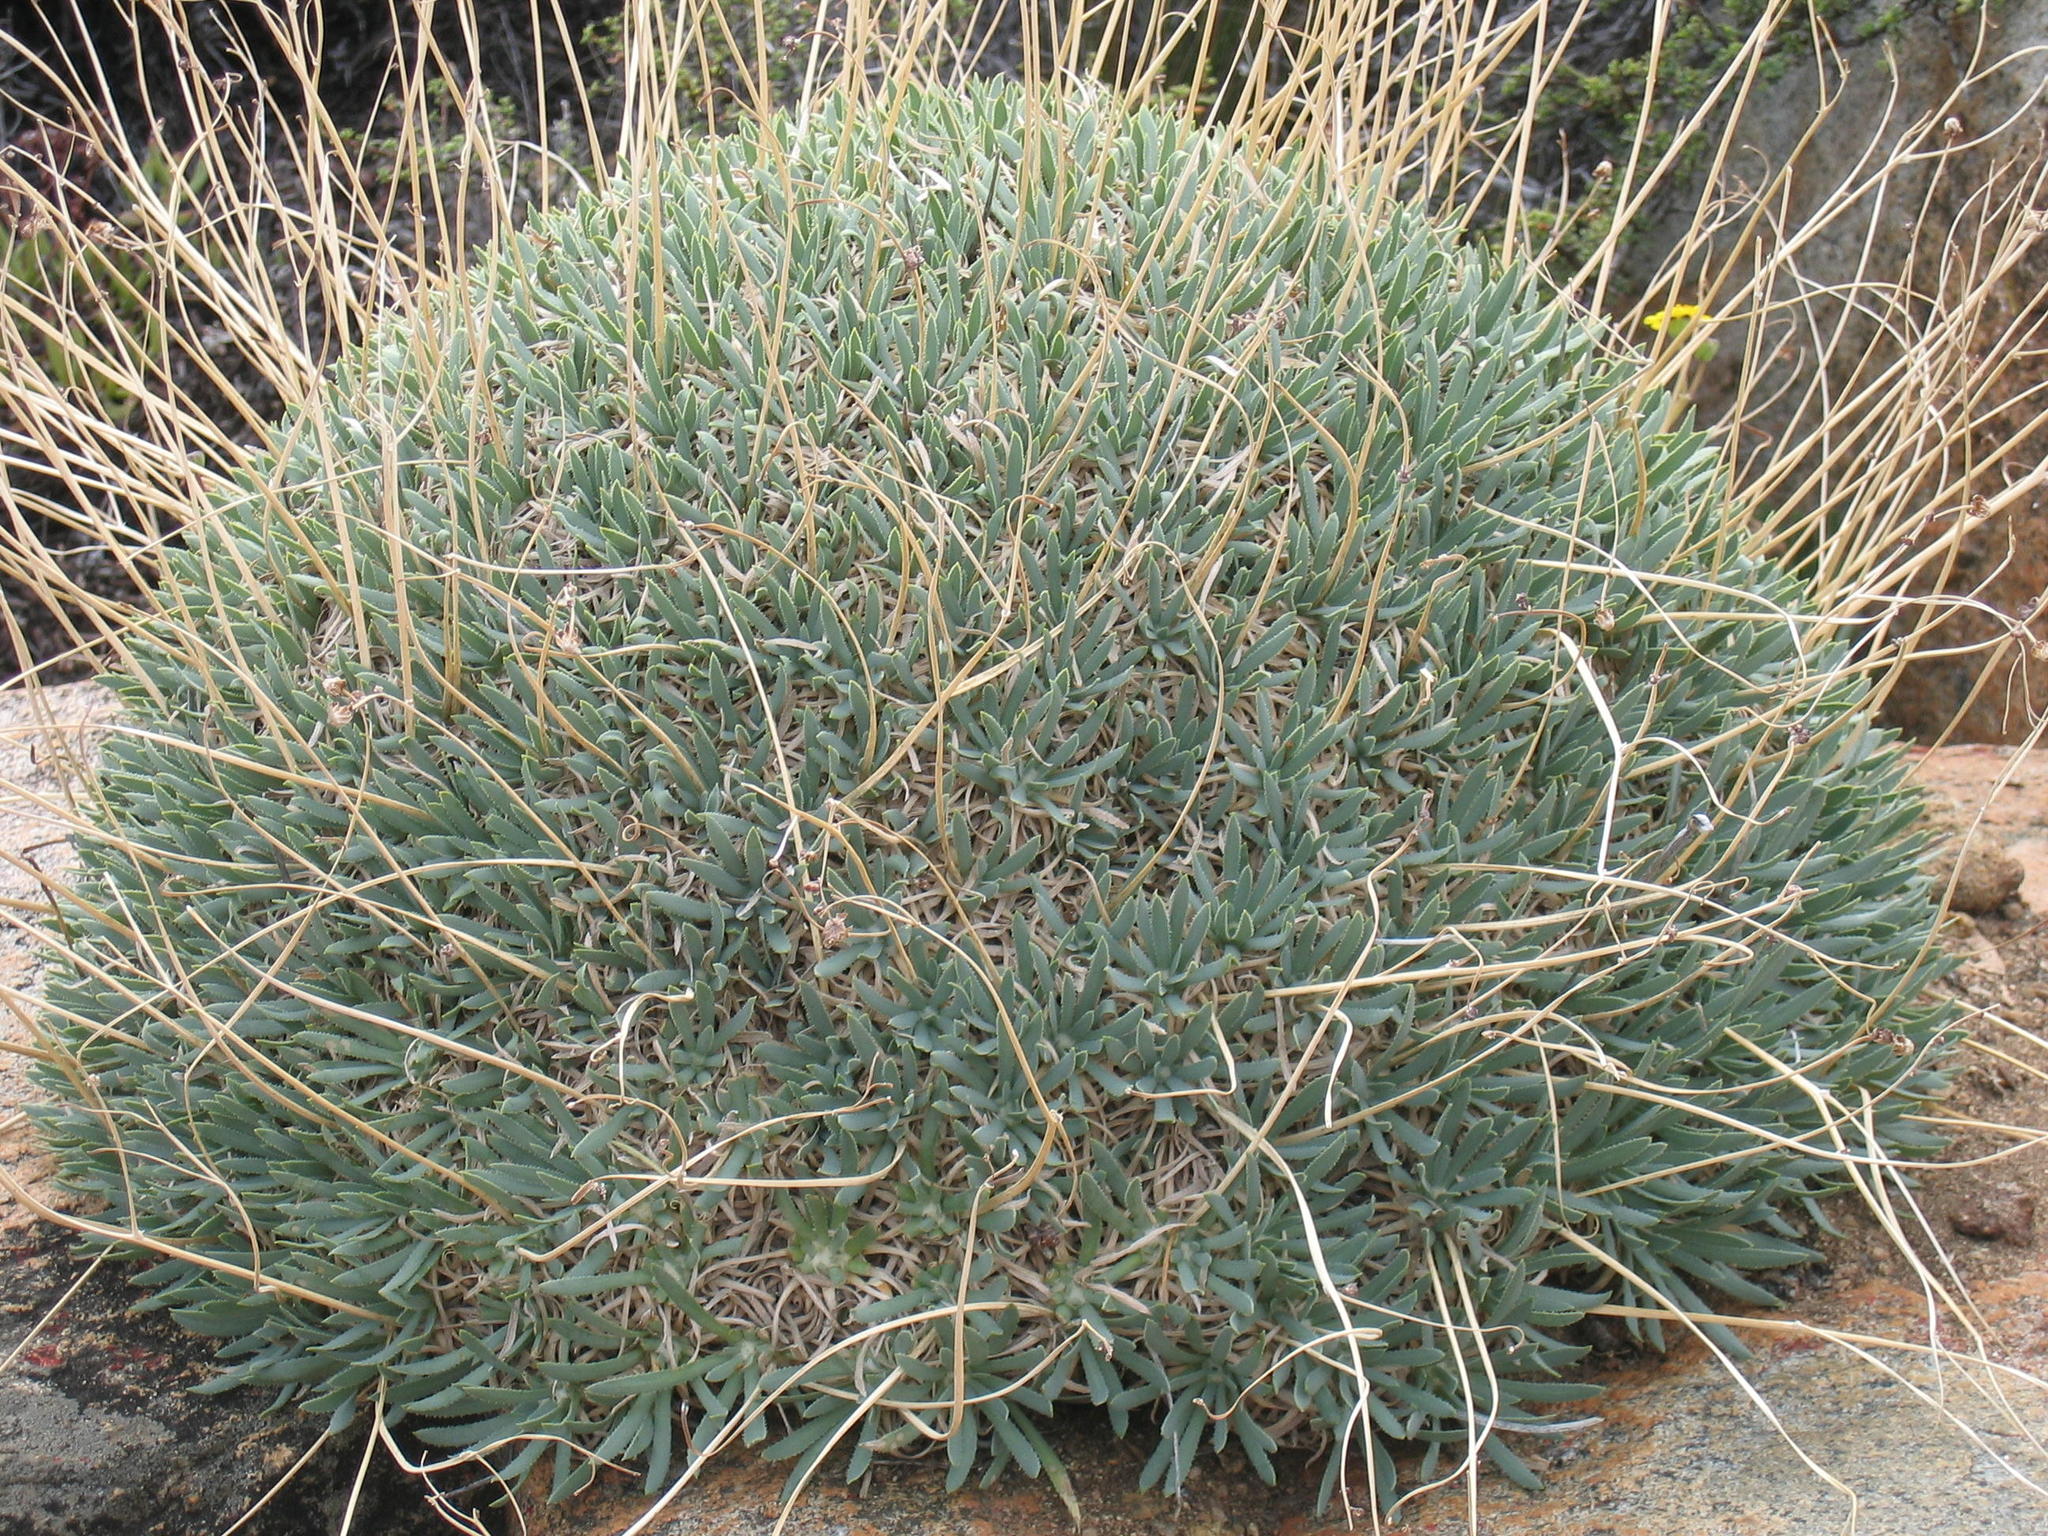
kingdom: Plantae
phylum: Tracheophyta
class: Magnoliopsida
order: Asterales
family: Asteraceae
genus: Othonna
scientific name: Othonna retrorsa
